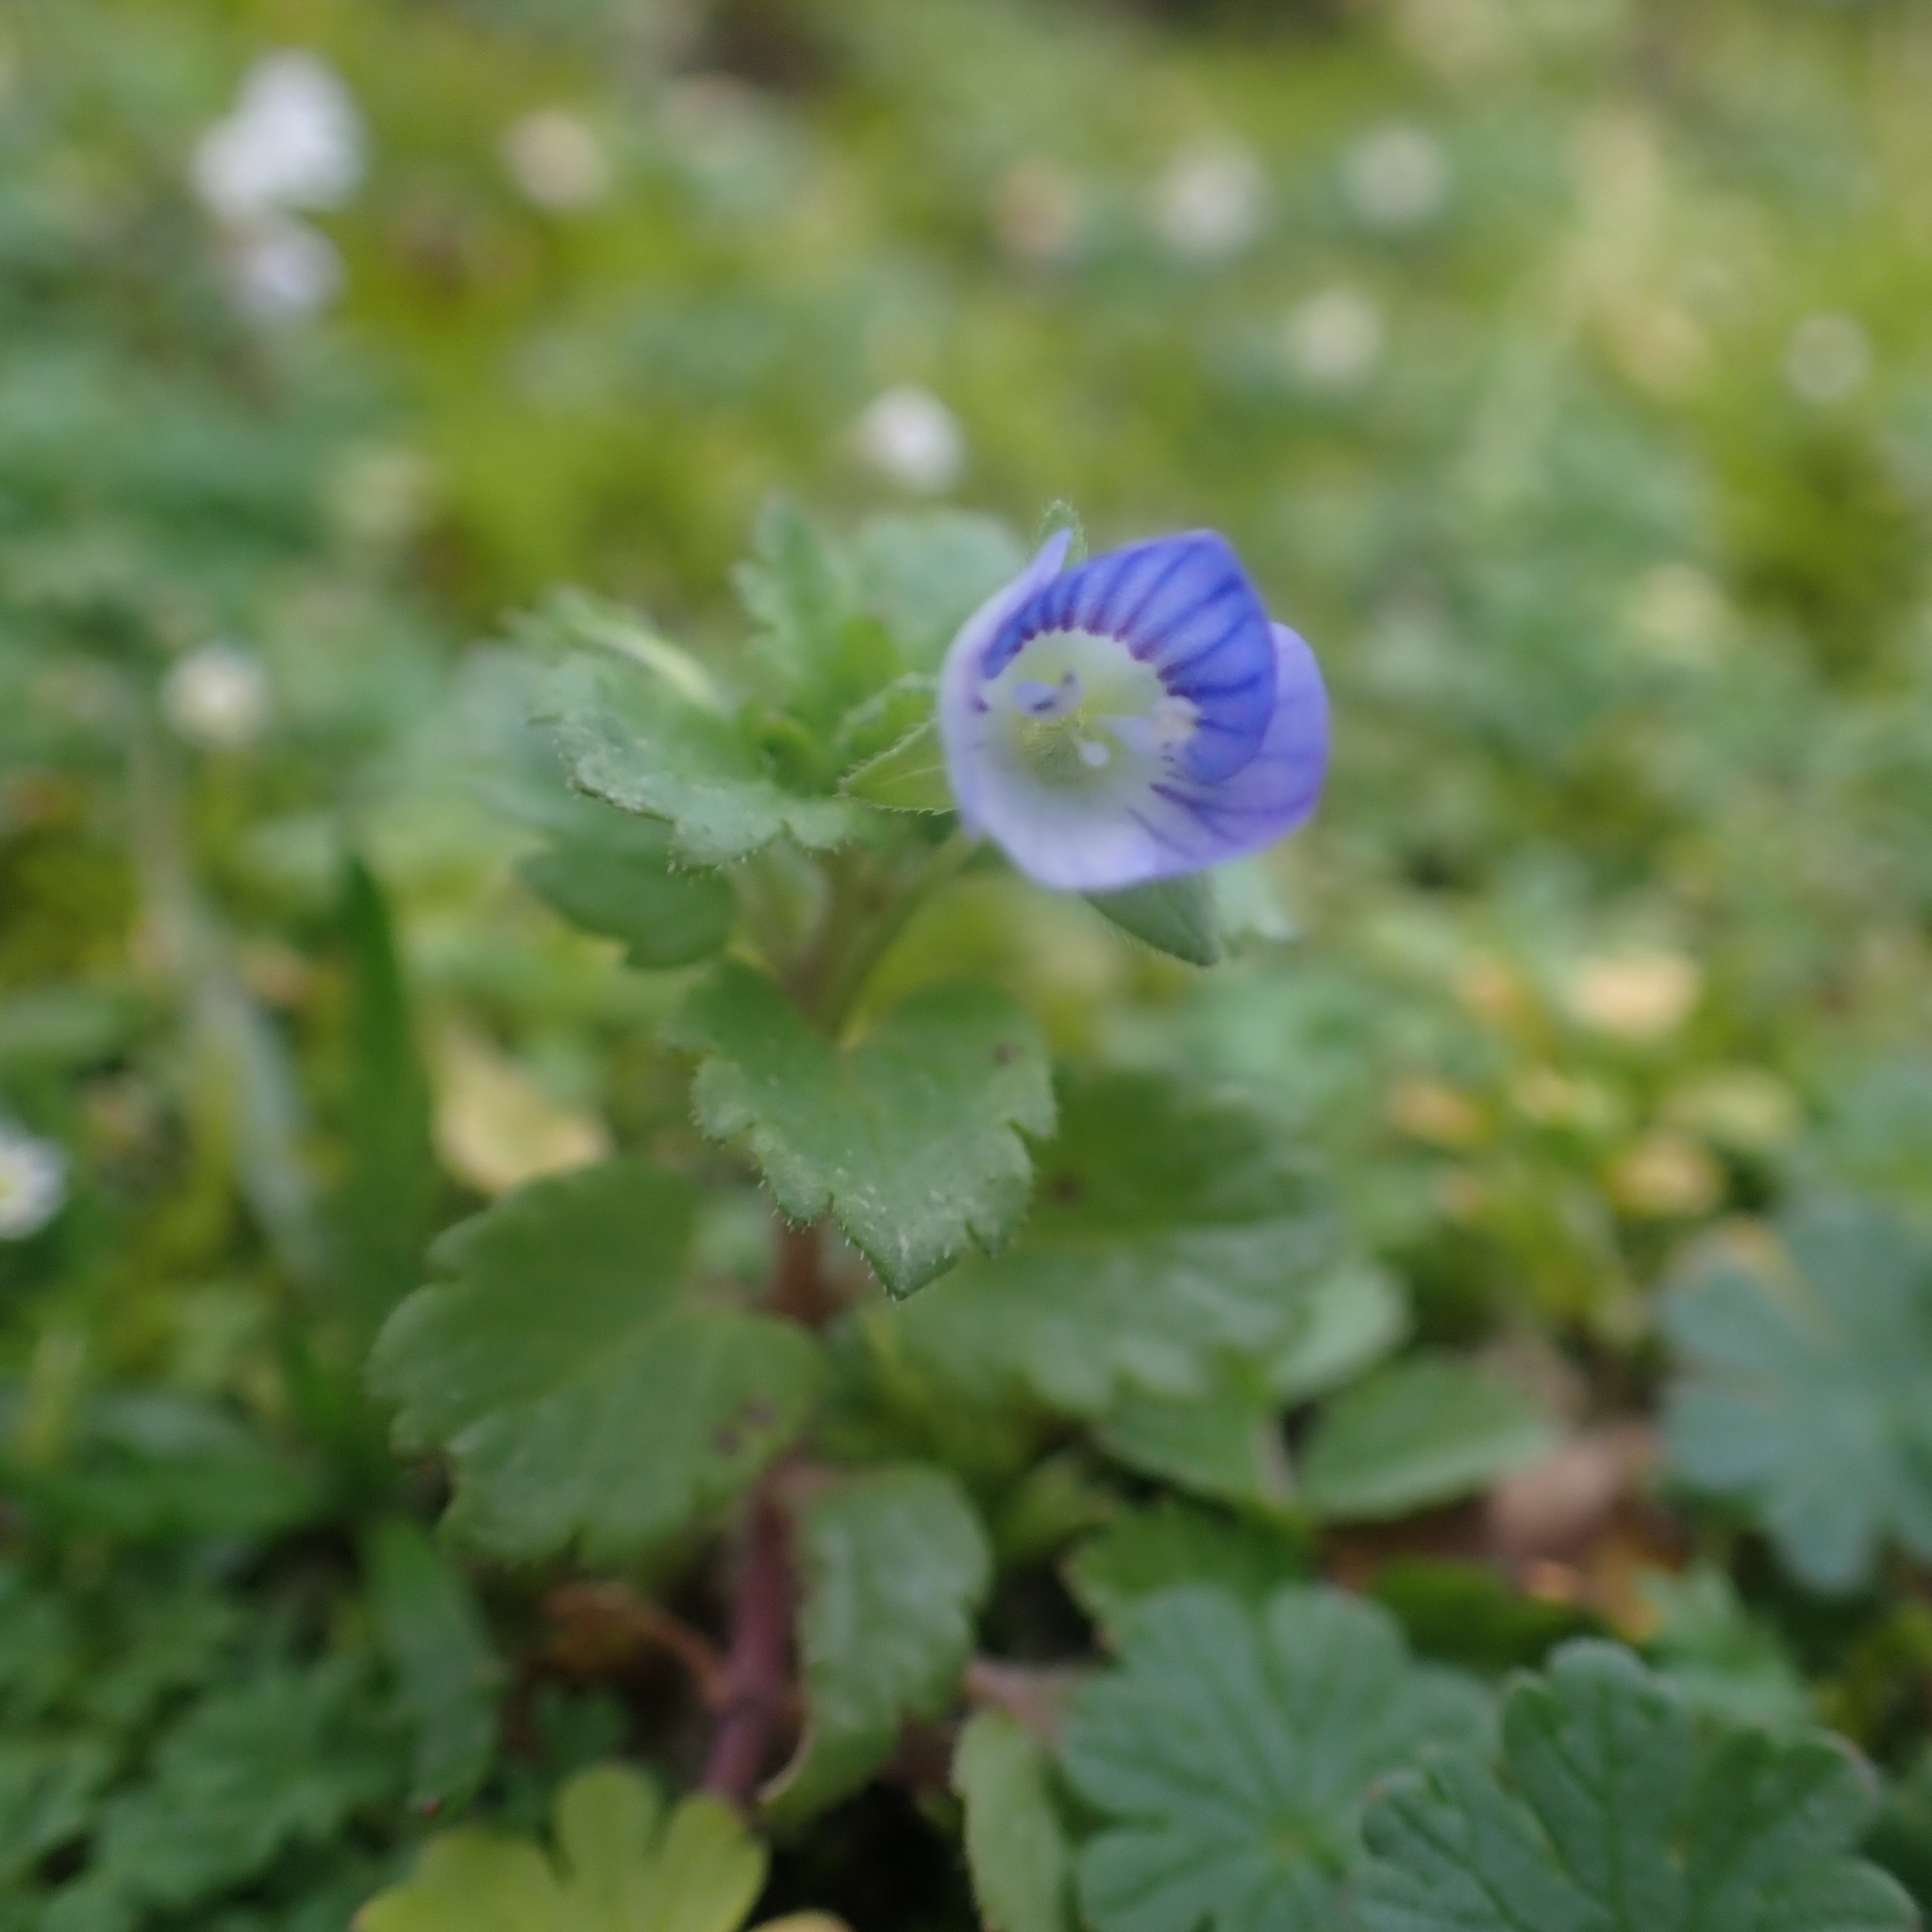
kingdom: Plantae
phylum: Tracheophyta
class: Magnoliopsida
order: Lamiales
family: Plantaginaceae
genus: Veronica
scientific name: Veronica persica
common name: Common field-speedwell
